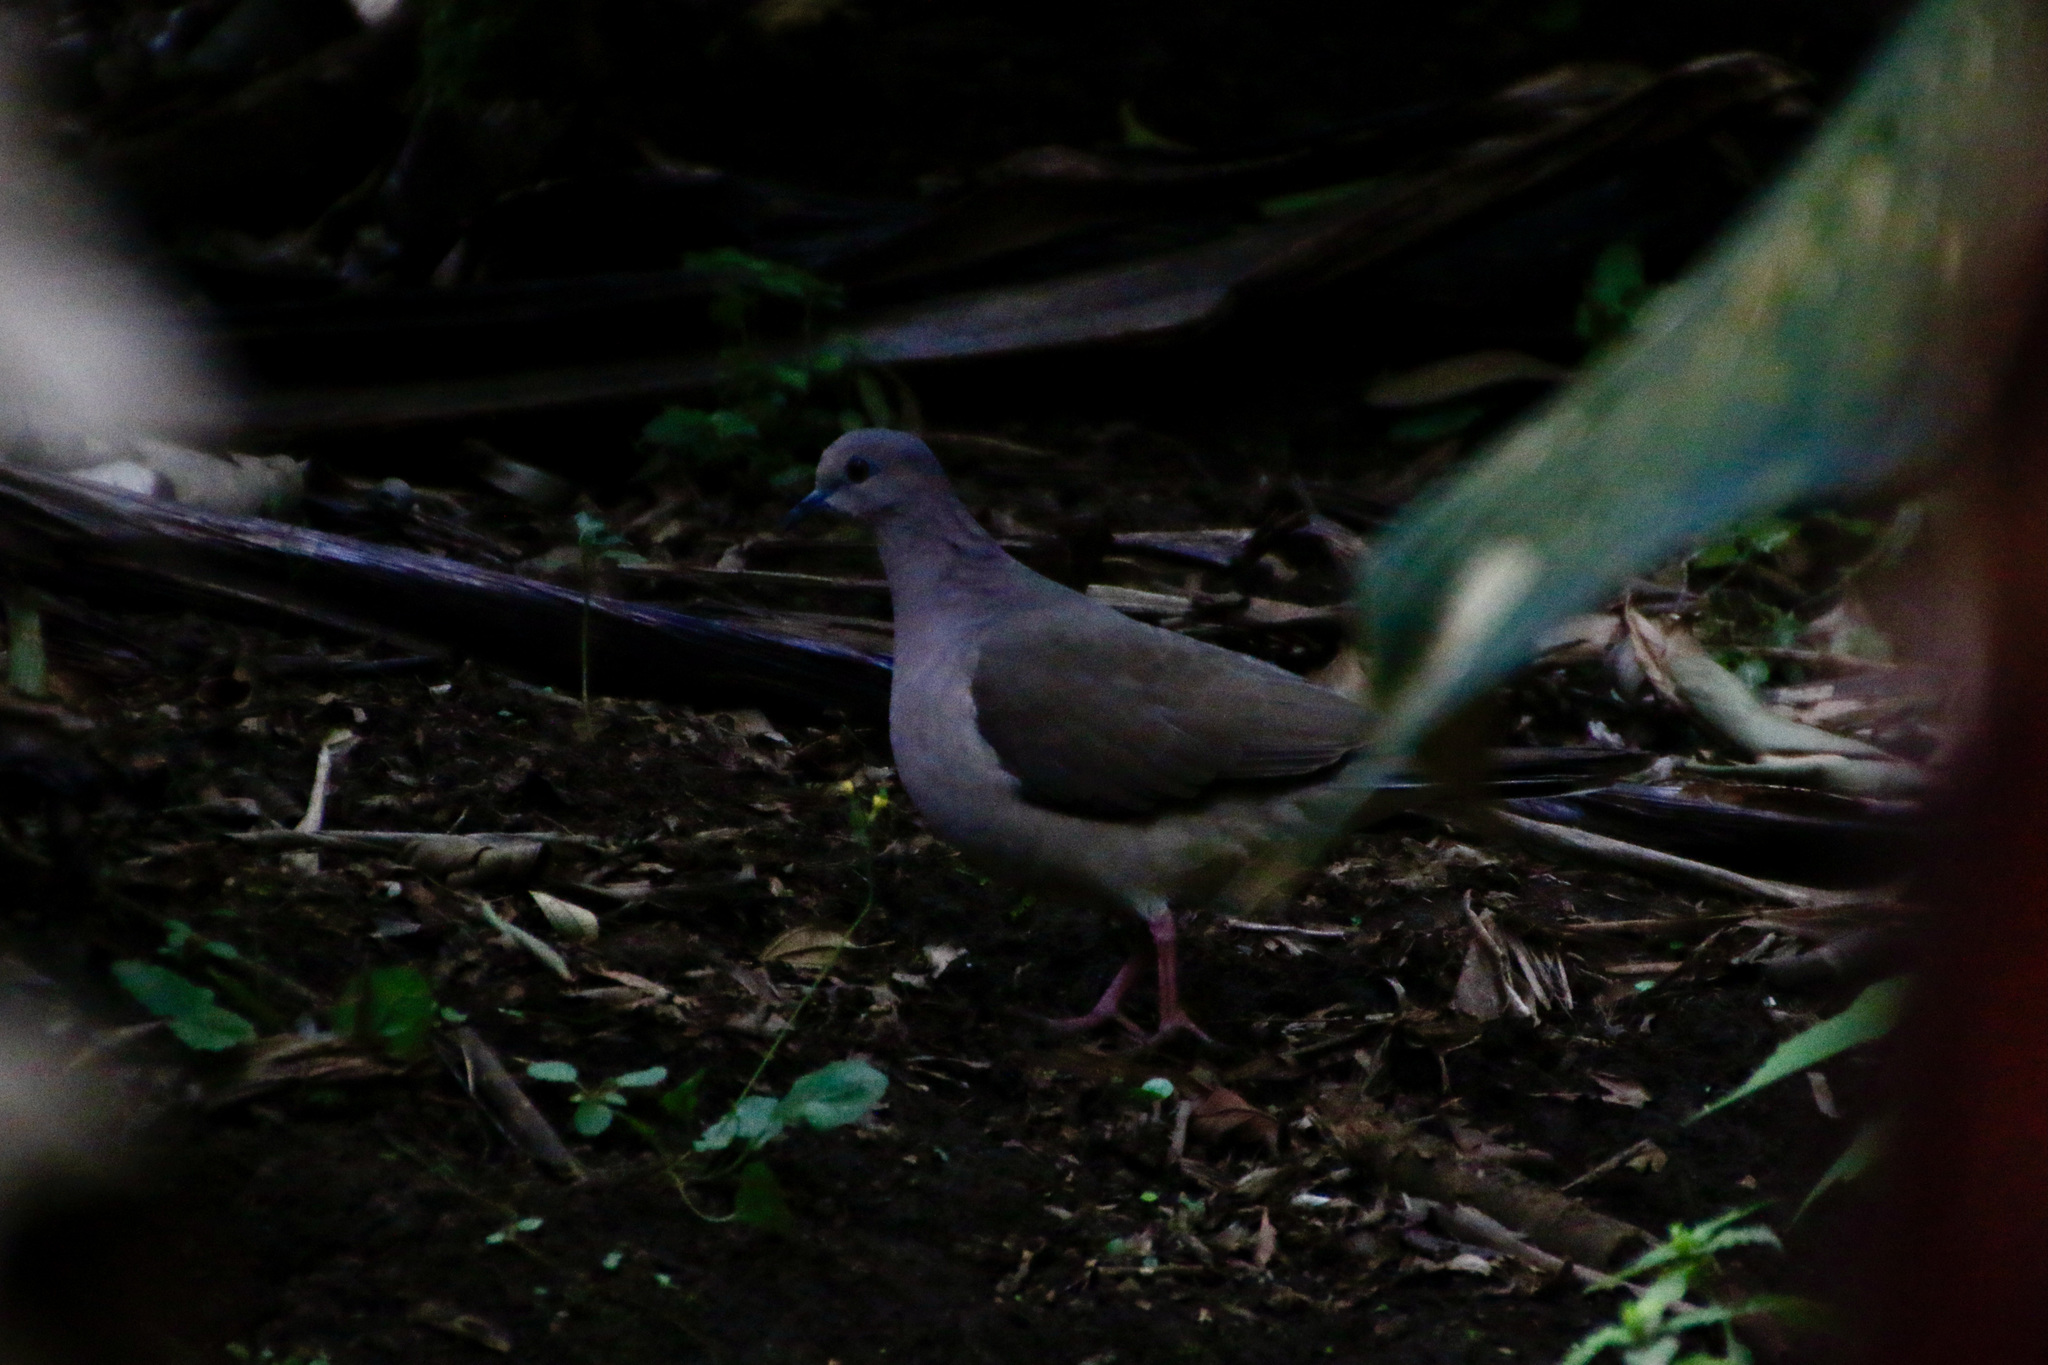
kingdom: Animalia
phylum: Chordata
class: Aves
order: Columbiformes
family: Columbidae
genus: Leptotila
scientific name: Leptotila verreauxi
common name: White-tipped dove
